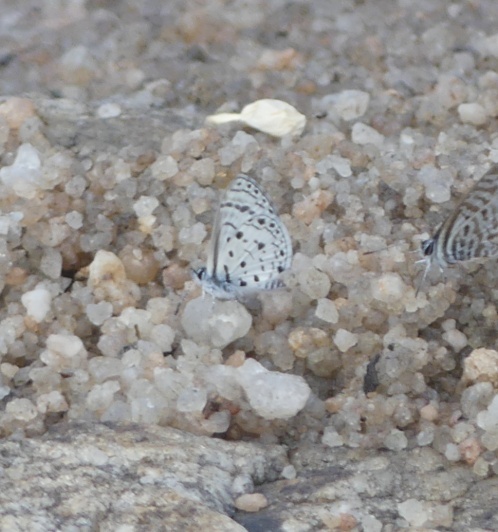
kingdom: Animalia
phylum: Arthropoda
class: Insecta
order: Lepidoptera
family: Lycaenidae
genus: Azanus
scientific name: Azanus moriqua
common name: Thorn-tree babul blue
